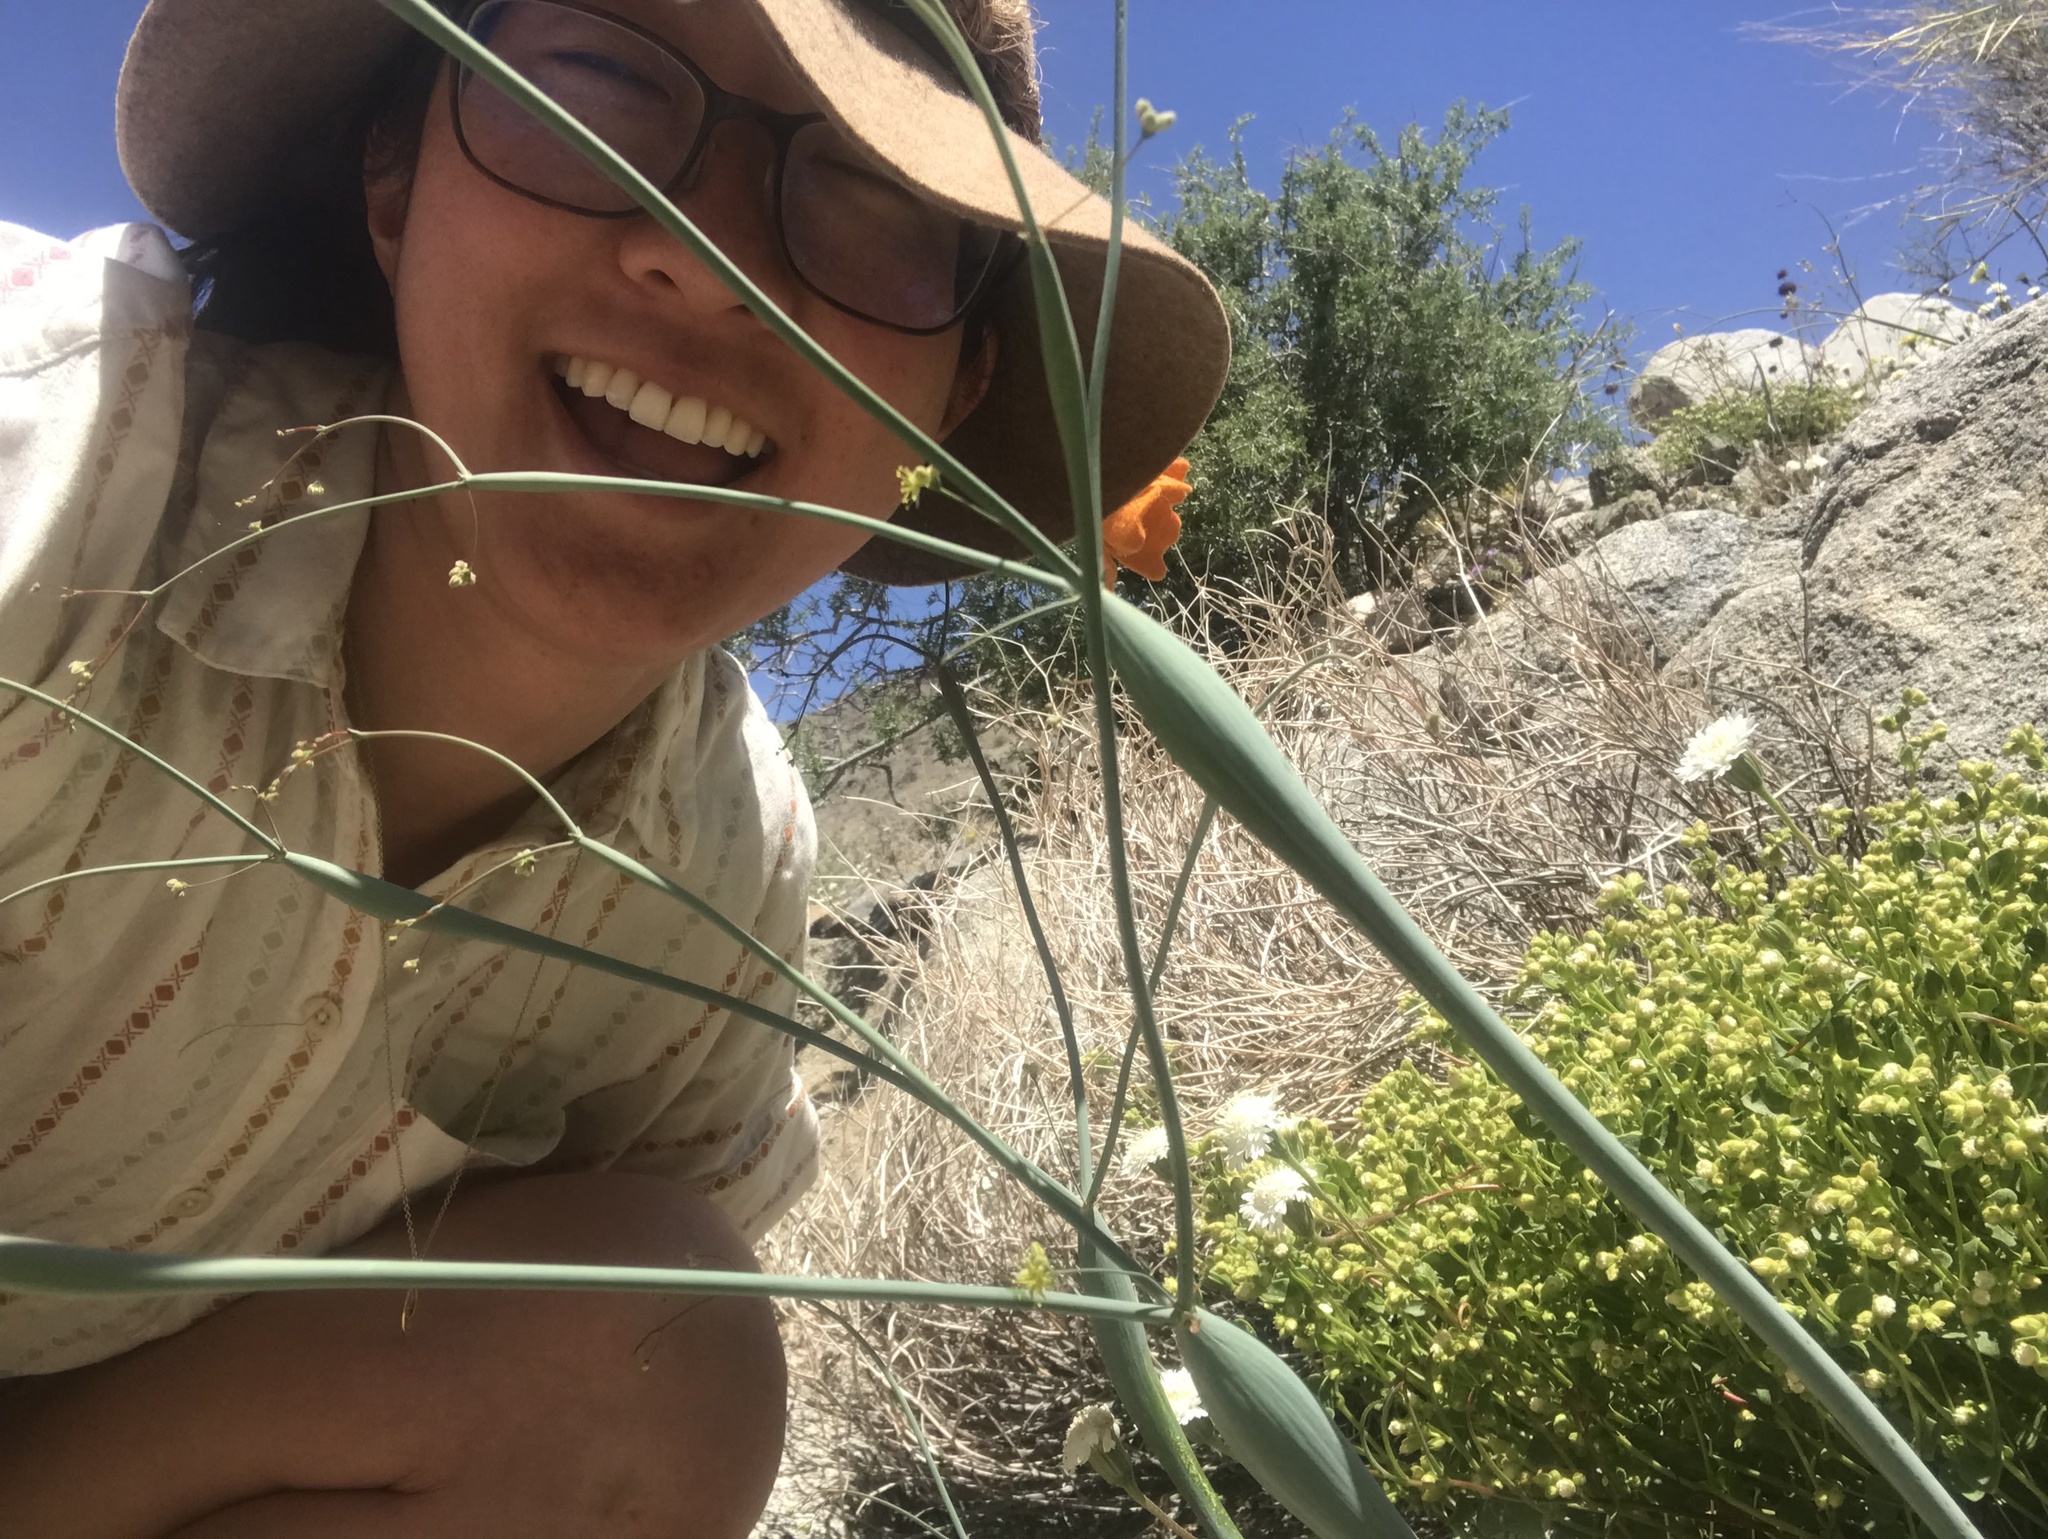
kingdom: Plantae
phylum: Tracheophyta
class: Magnoliopsida
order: Caryophyllales
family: Polygonaceae
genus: Eriogonum
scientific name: Eriogonum inflatum
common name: Desert trumpet
